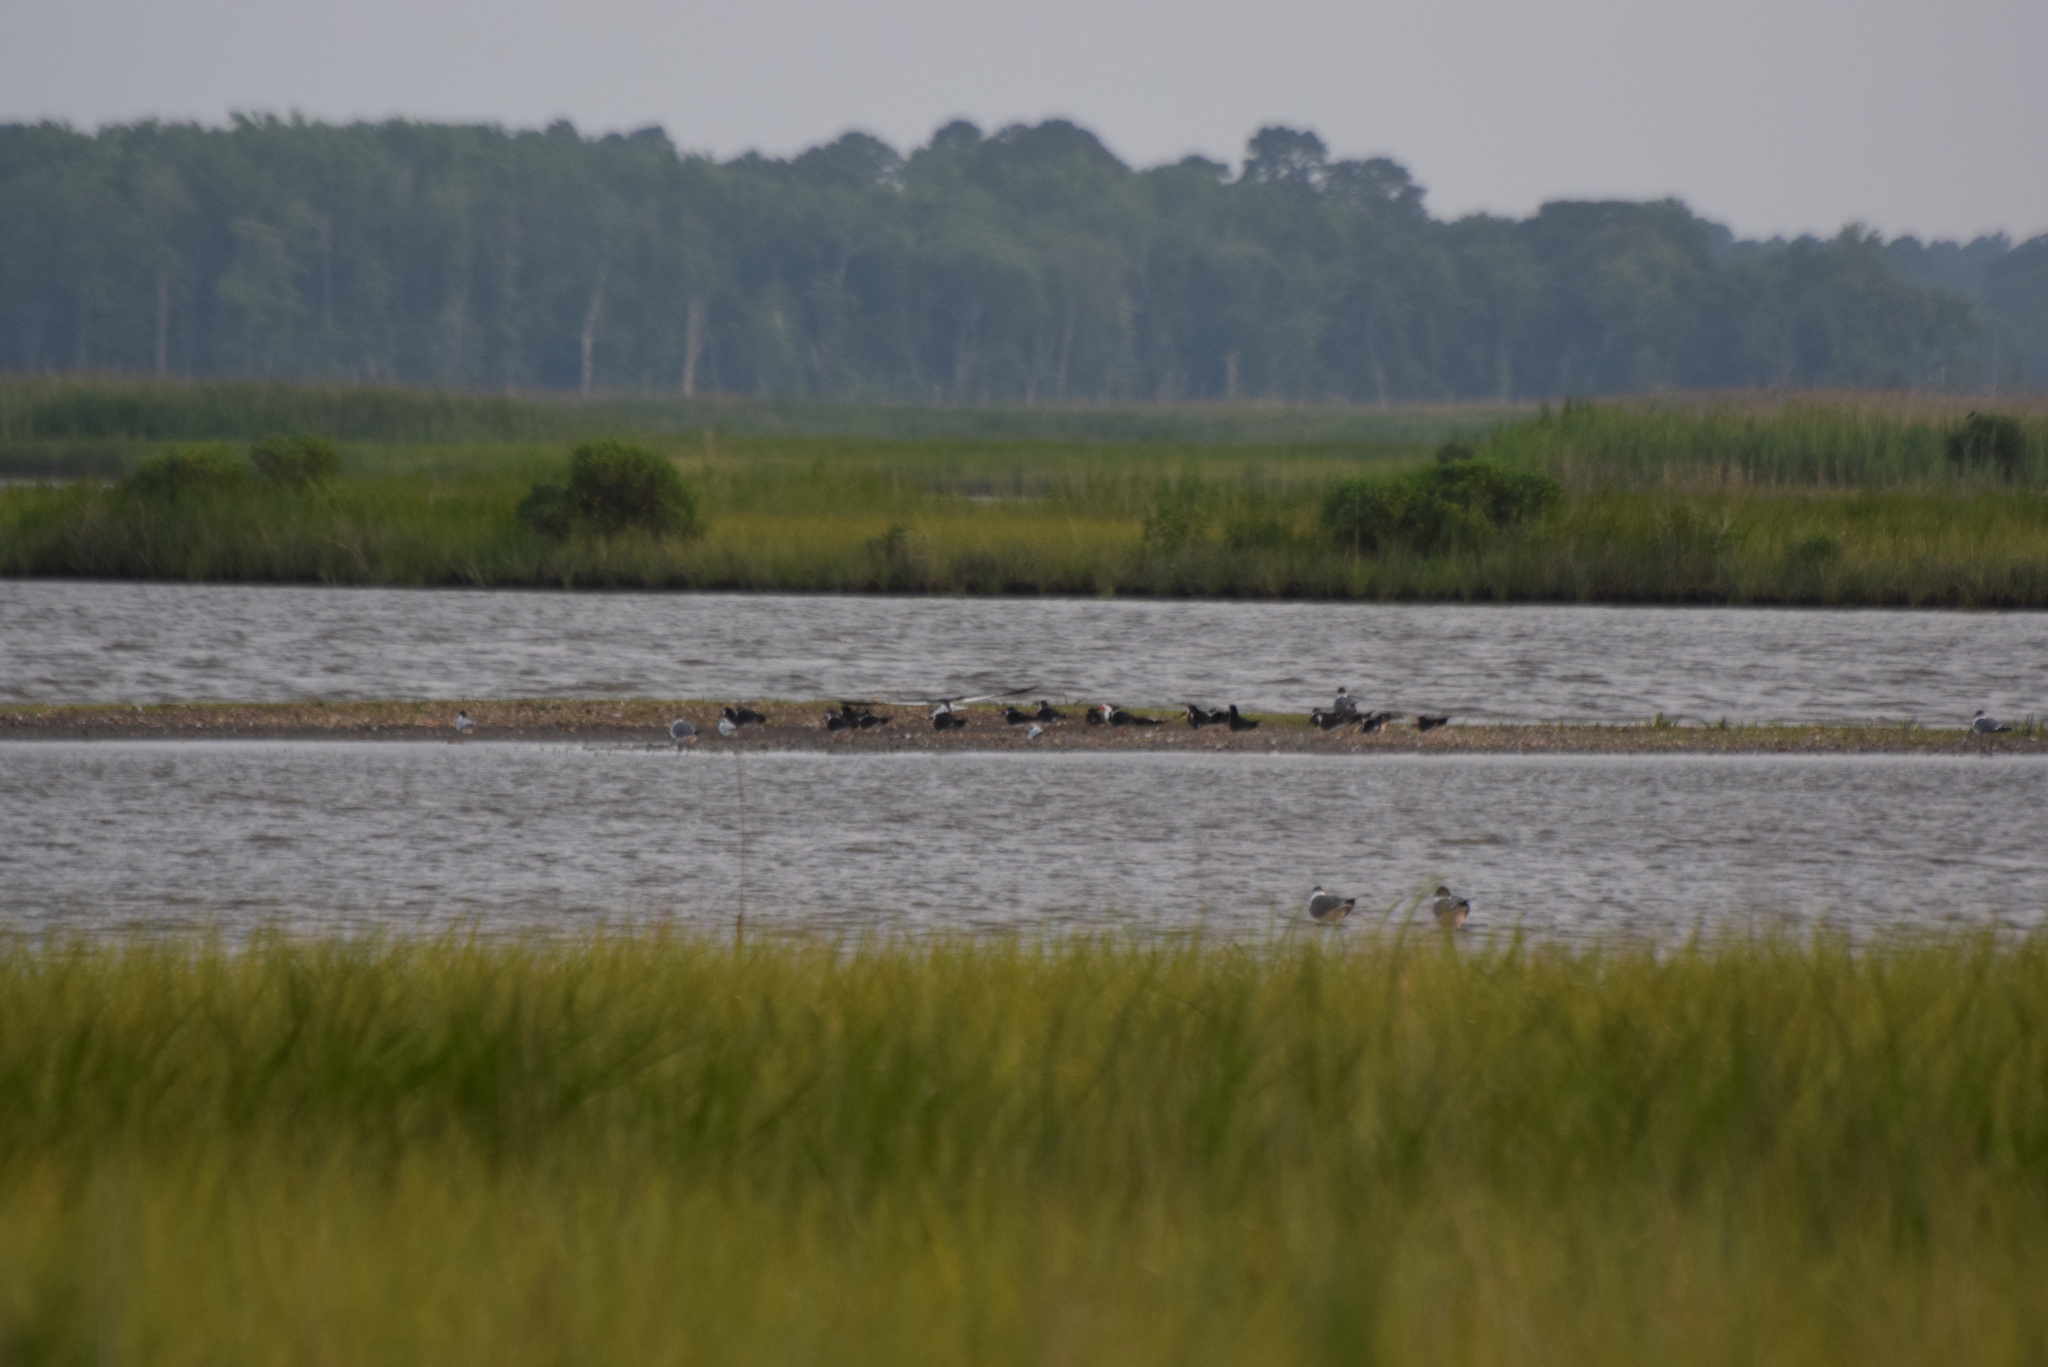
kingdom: Animalia
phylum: Chordata
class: Aves
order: Charadriiformes
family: Laridae
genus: Rynchops
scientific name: Rynchops niger
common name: Black skimmer
